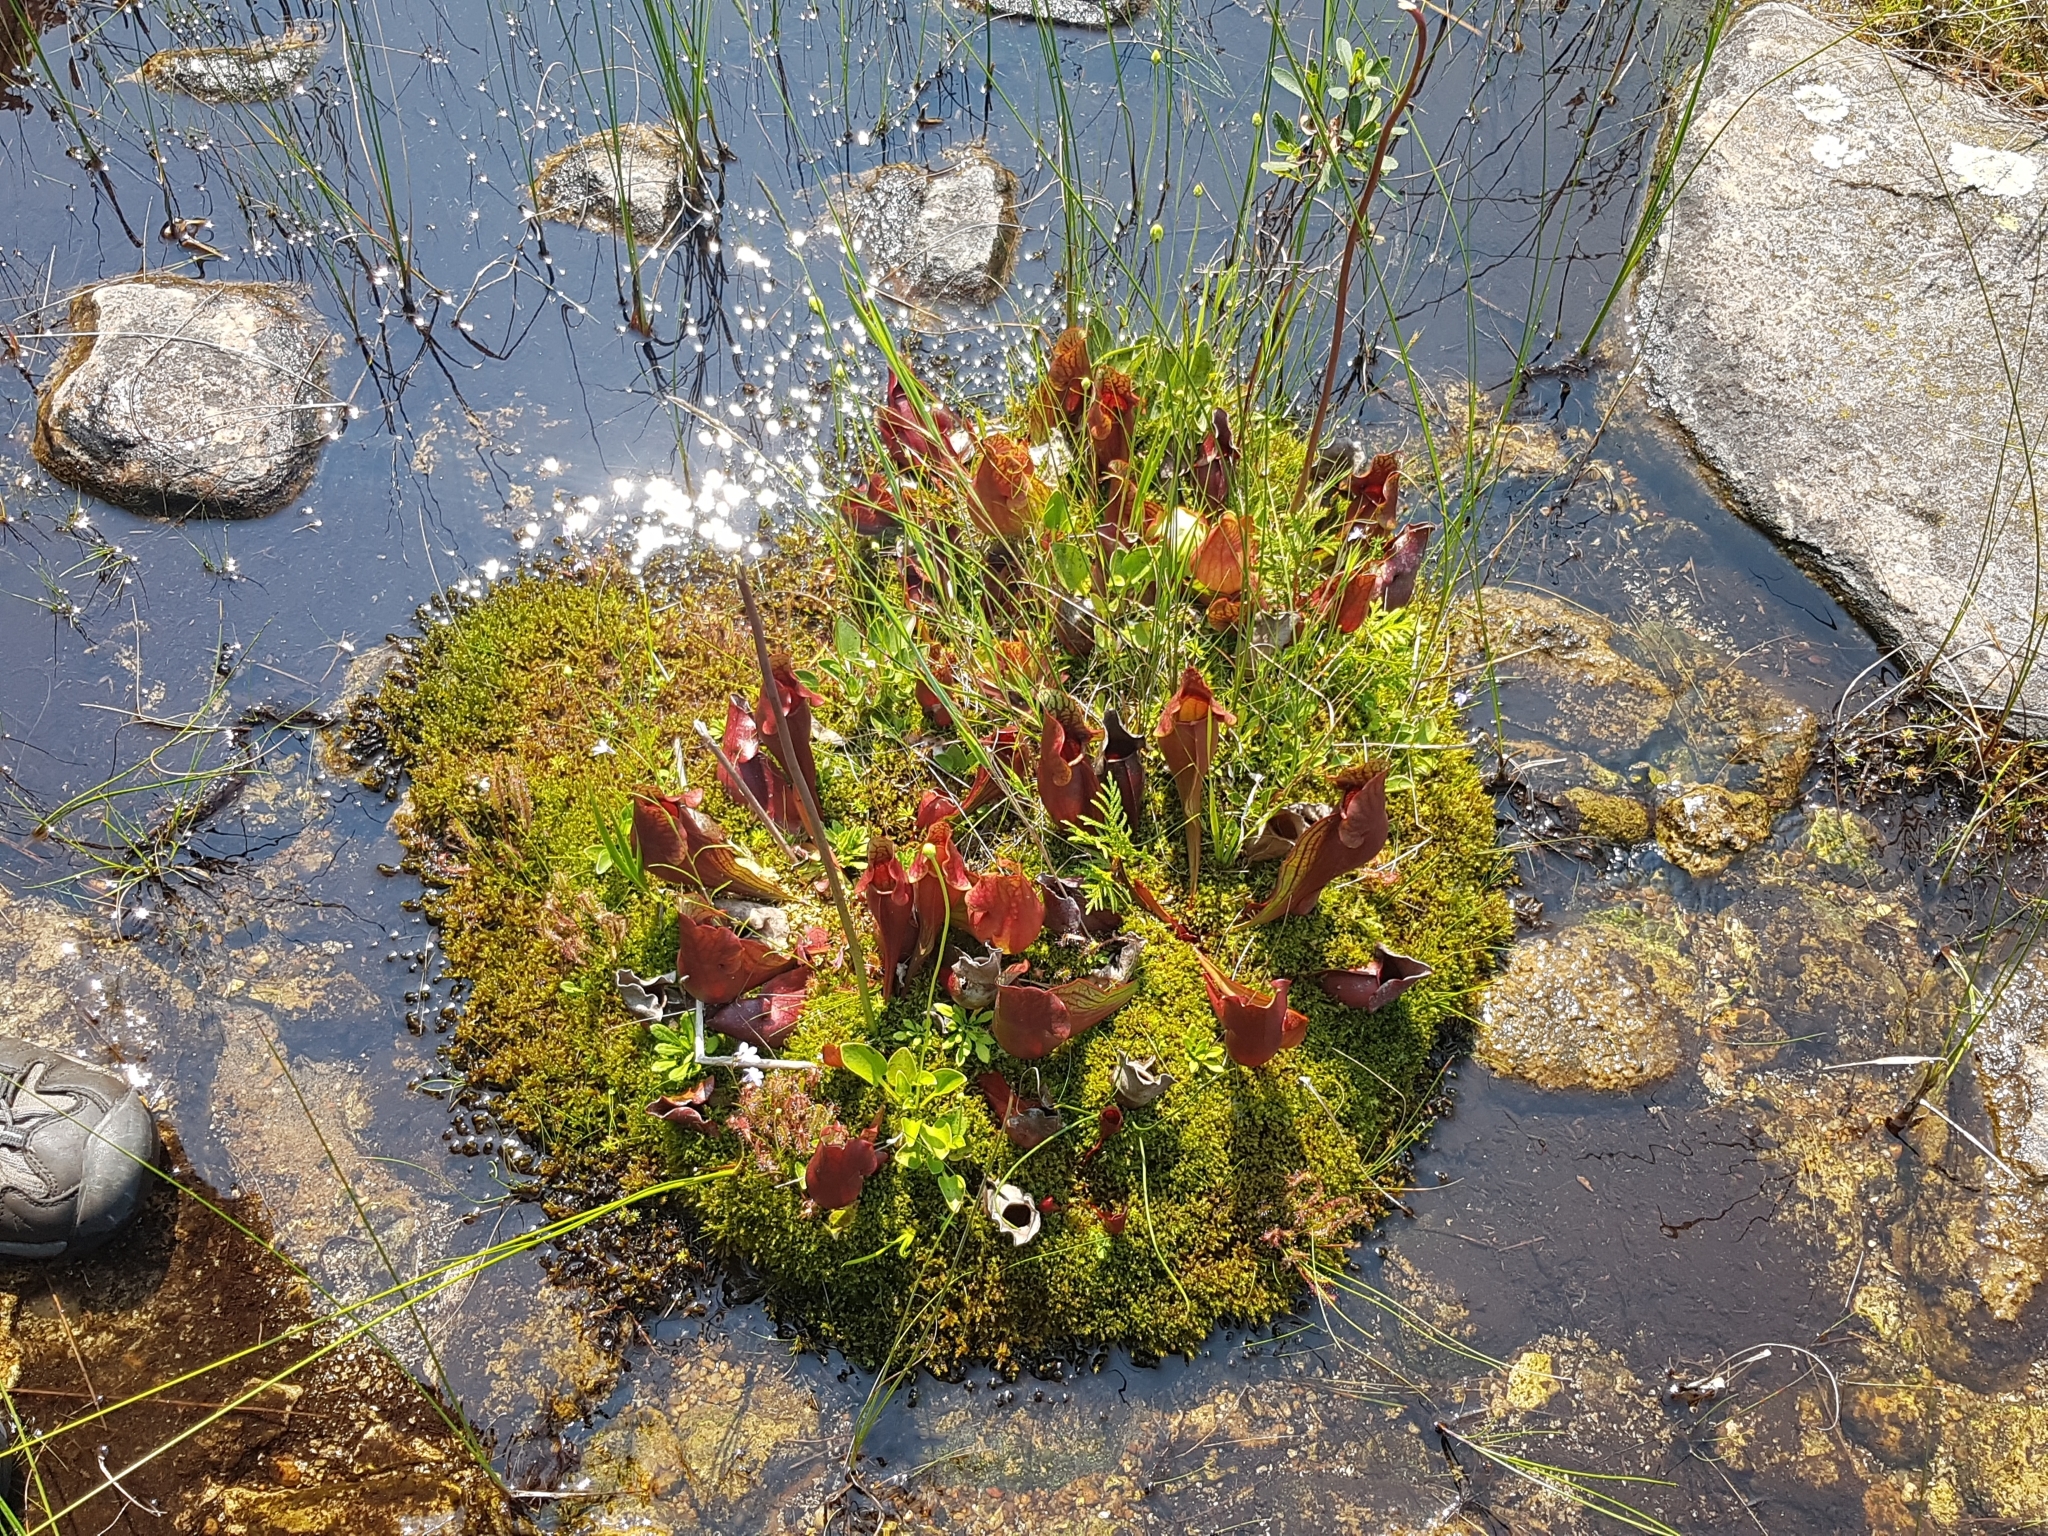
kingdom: Plantae
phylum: Tracheophyta
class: Magnoliopsida
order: Ericales
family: Sarraceniaceae
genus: Sarracenia
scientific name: Sarracenia purpurea
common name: Pitcherplant
